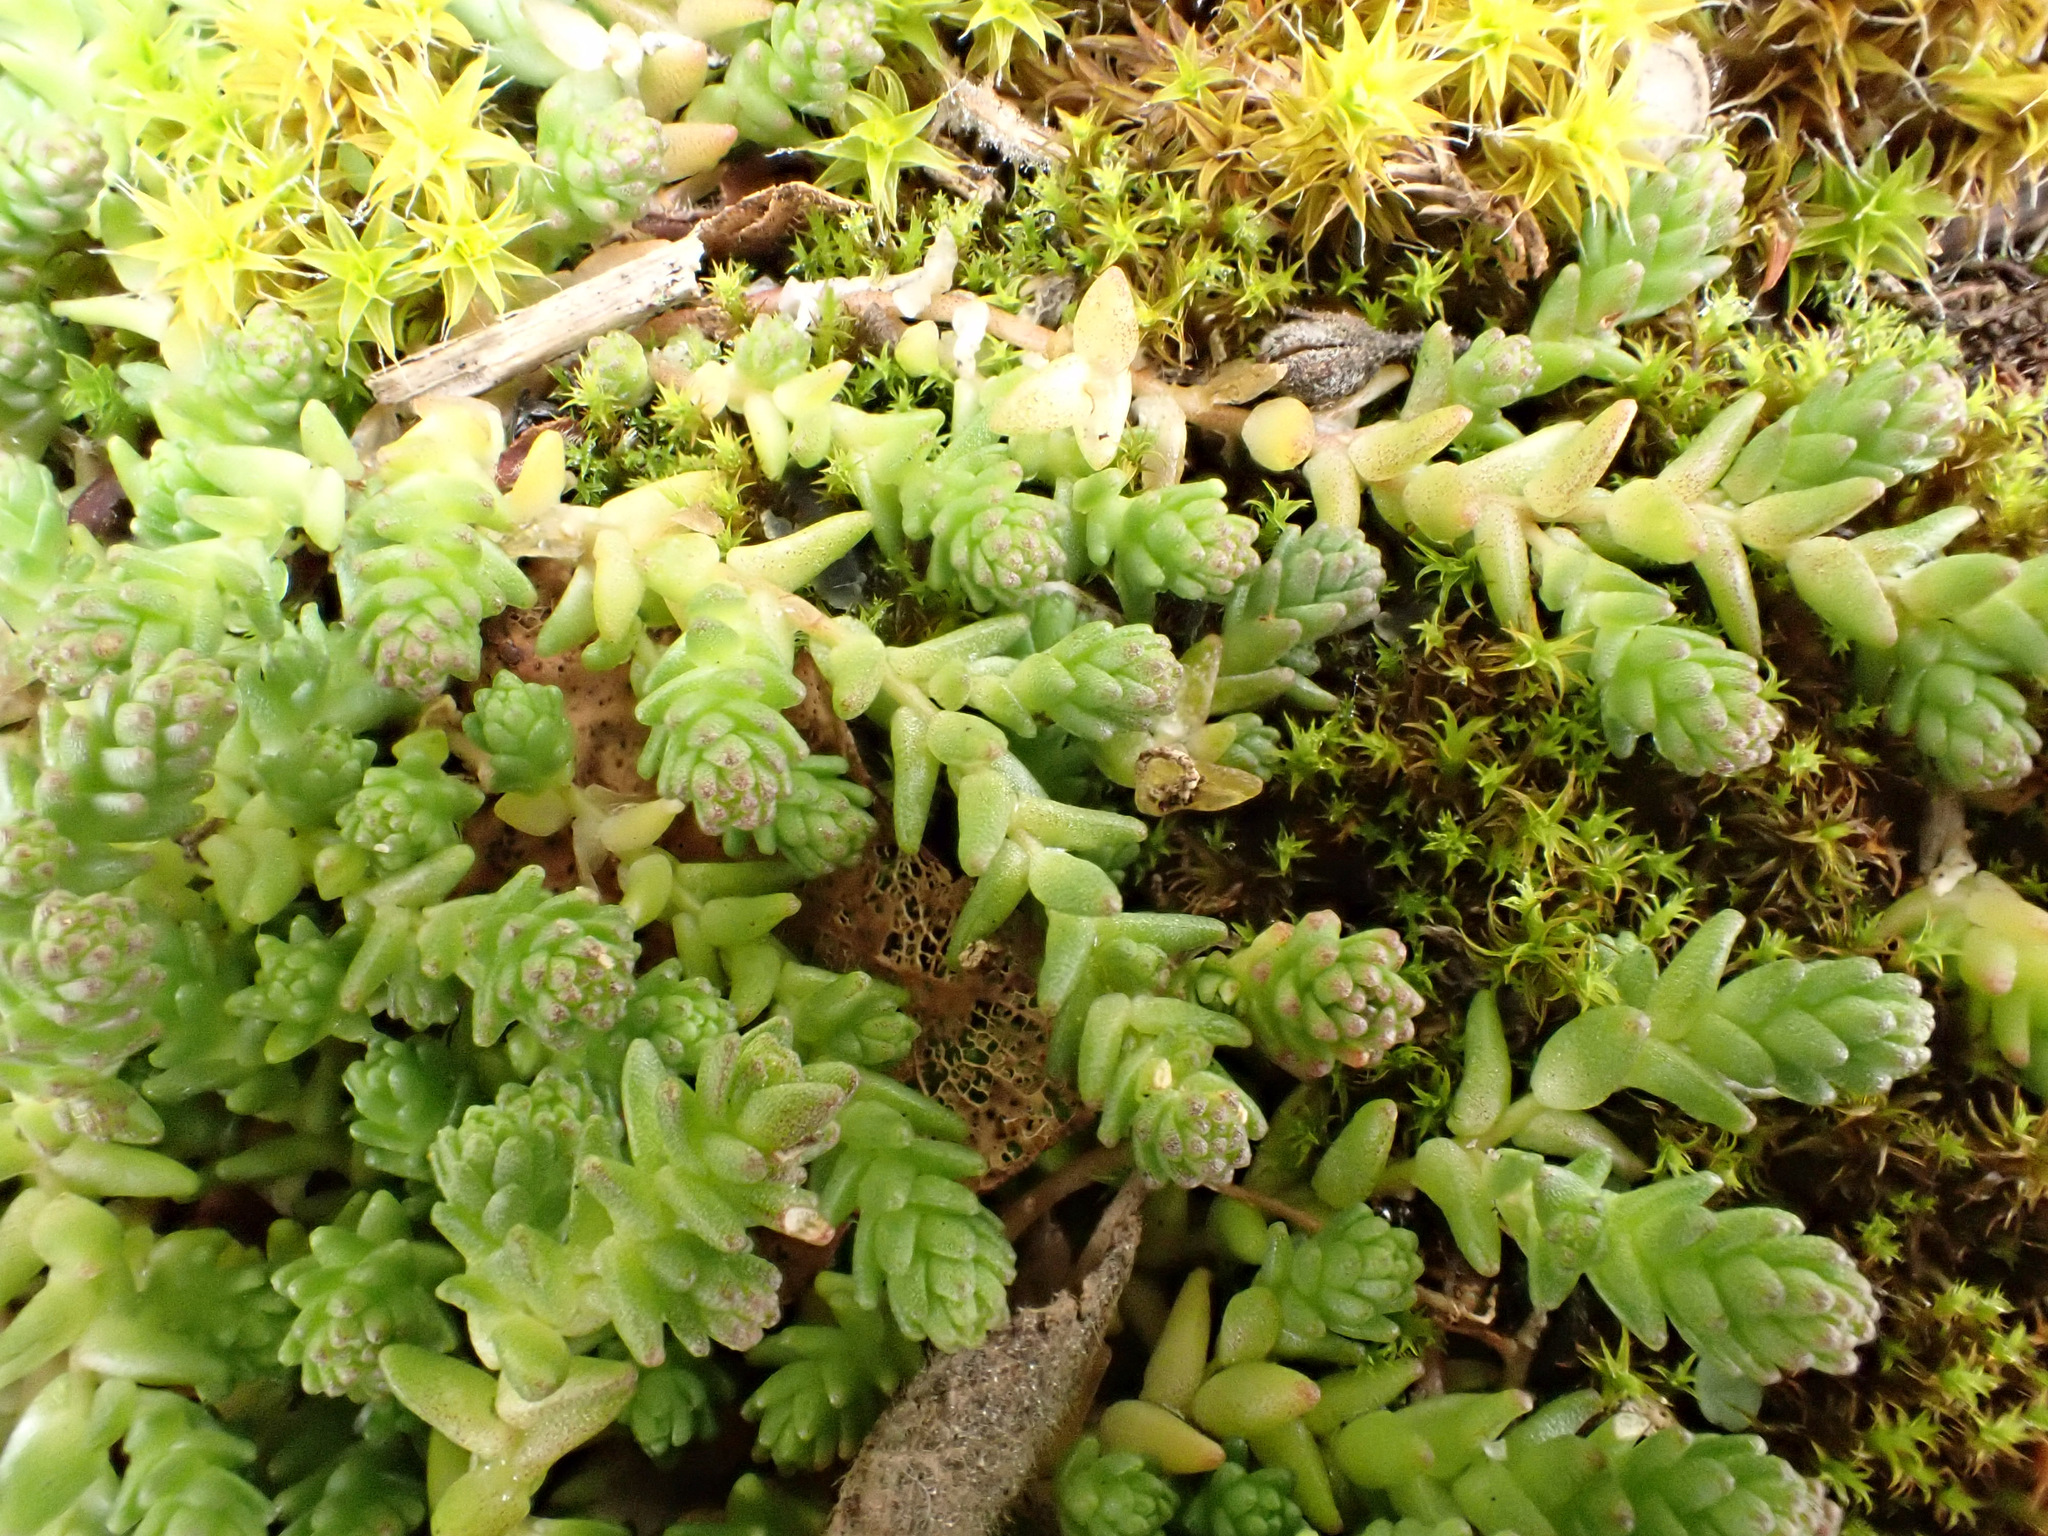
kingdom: Plantae
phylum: Tracheophyta
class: Magnoliopsida
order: Saxifragales
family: Crassulaceae
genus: Sedum
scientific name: Sedum acre
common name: Biting stonecrop
